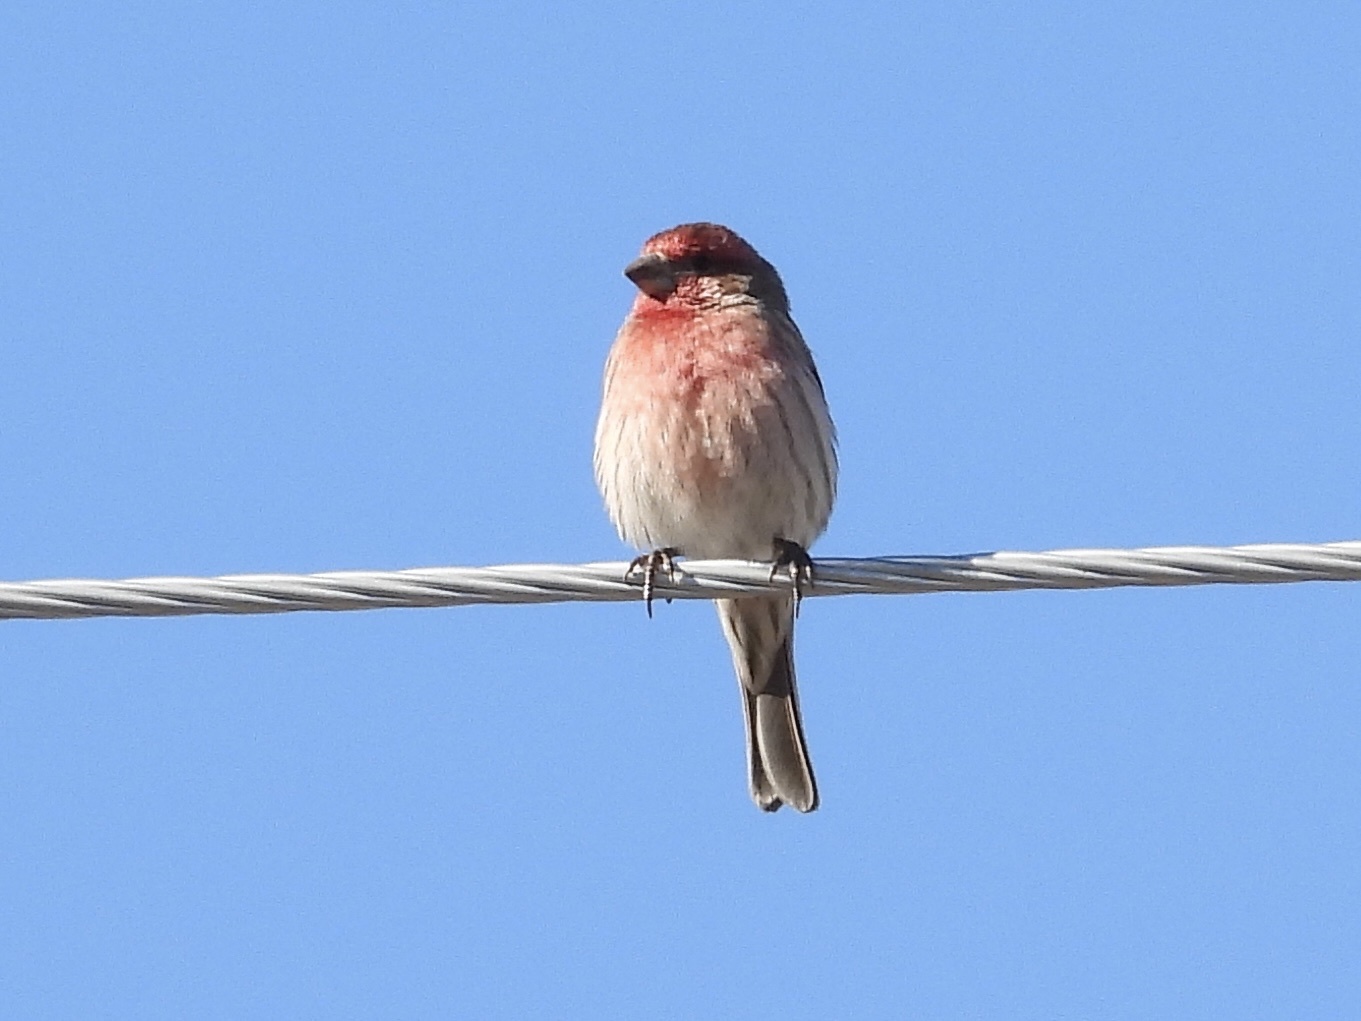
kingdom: Animalia
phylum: Chordata
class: Aves
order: Passeriformes
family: Fringillidae
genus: Haemorhous
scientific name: Haemorhous mexicanus
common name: House finch
